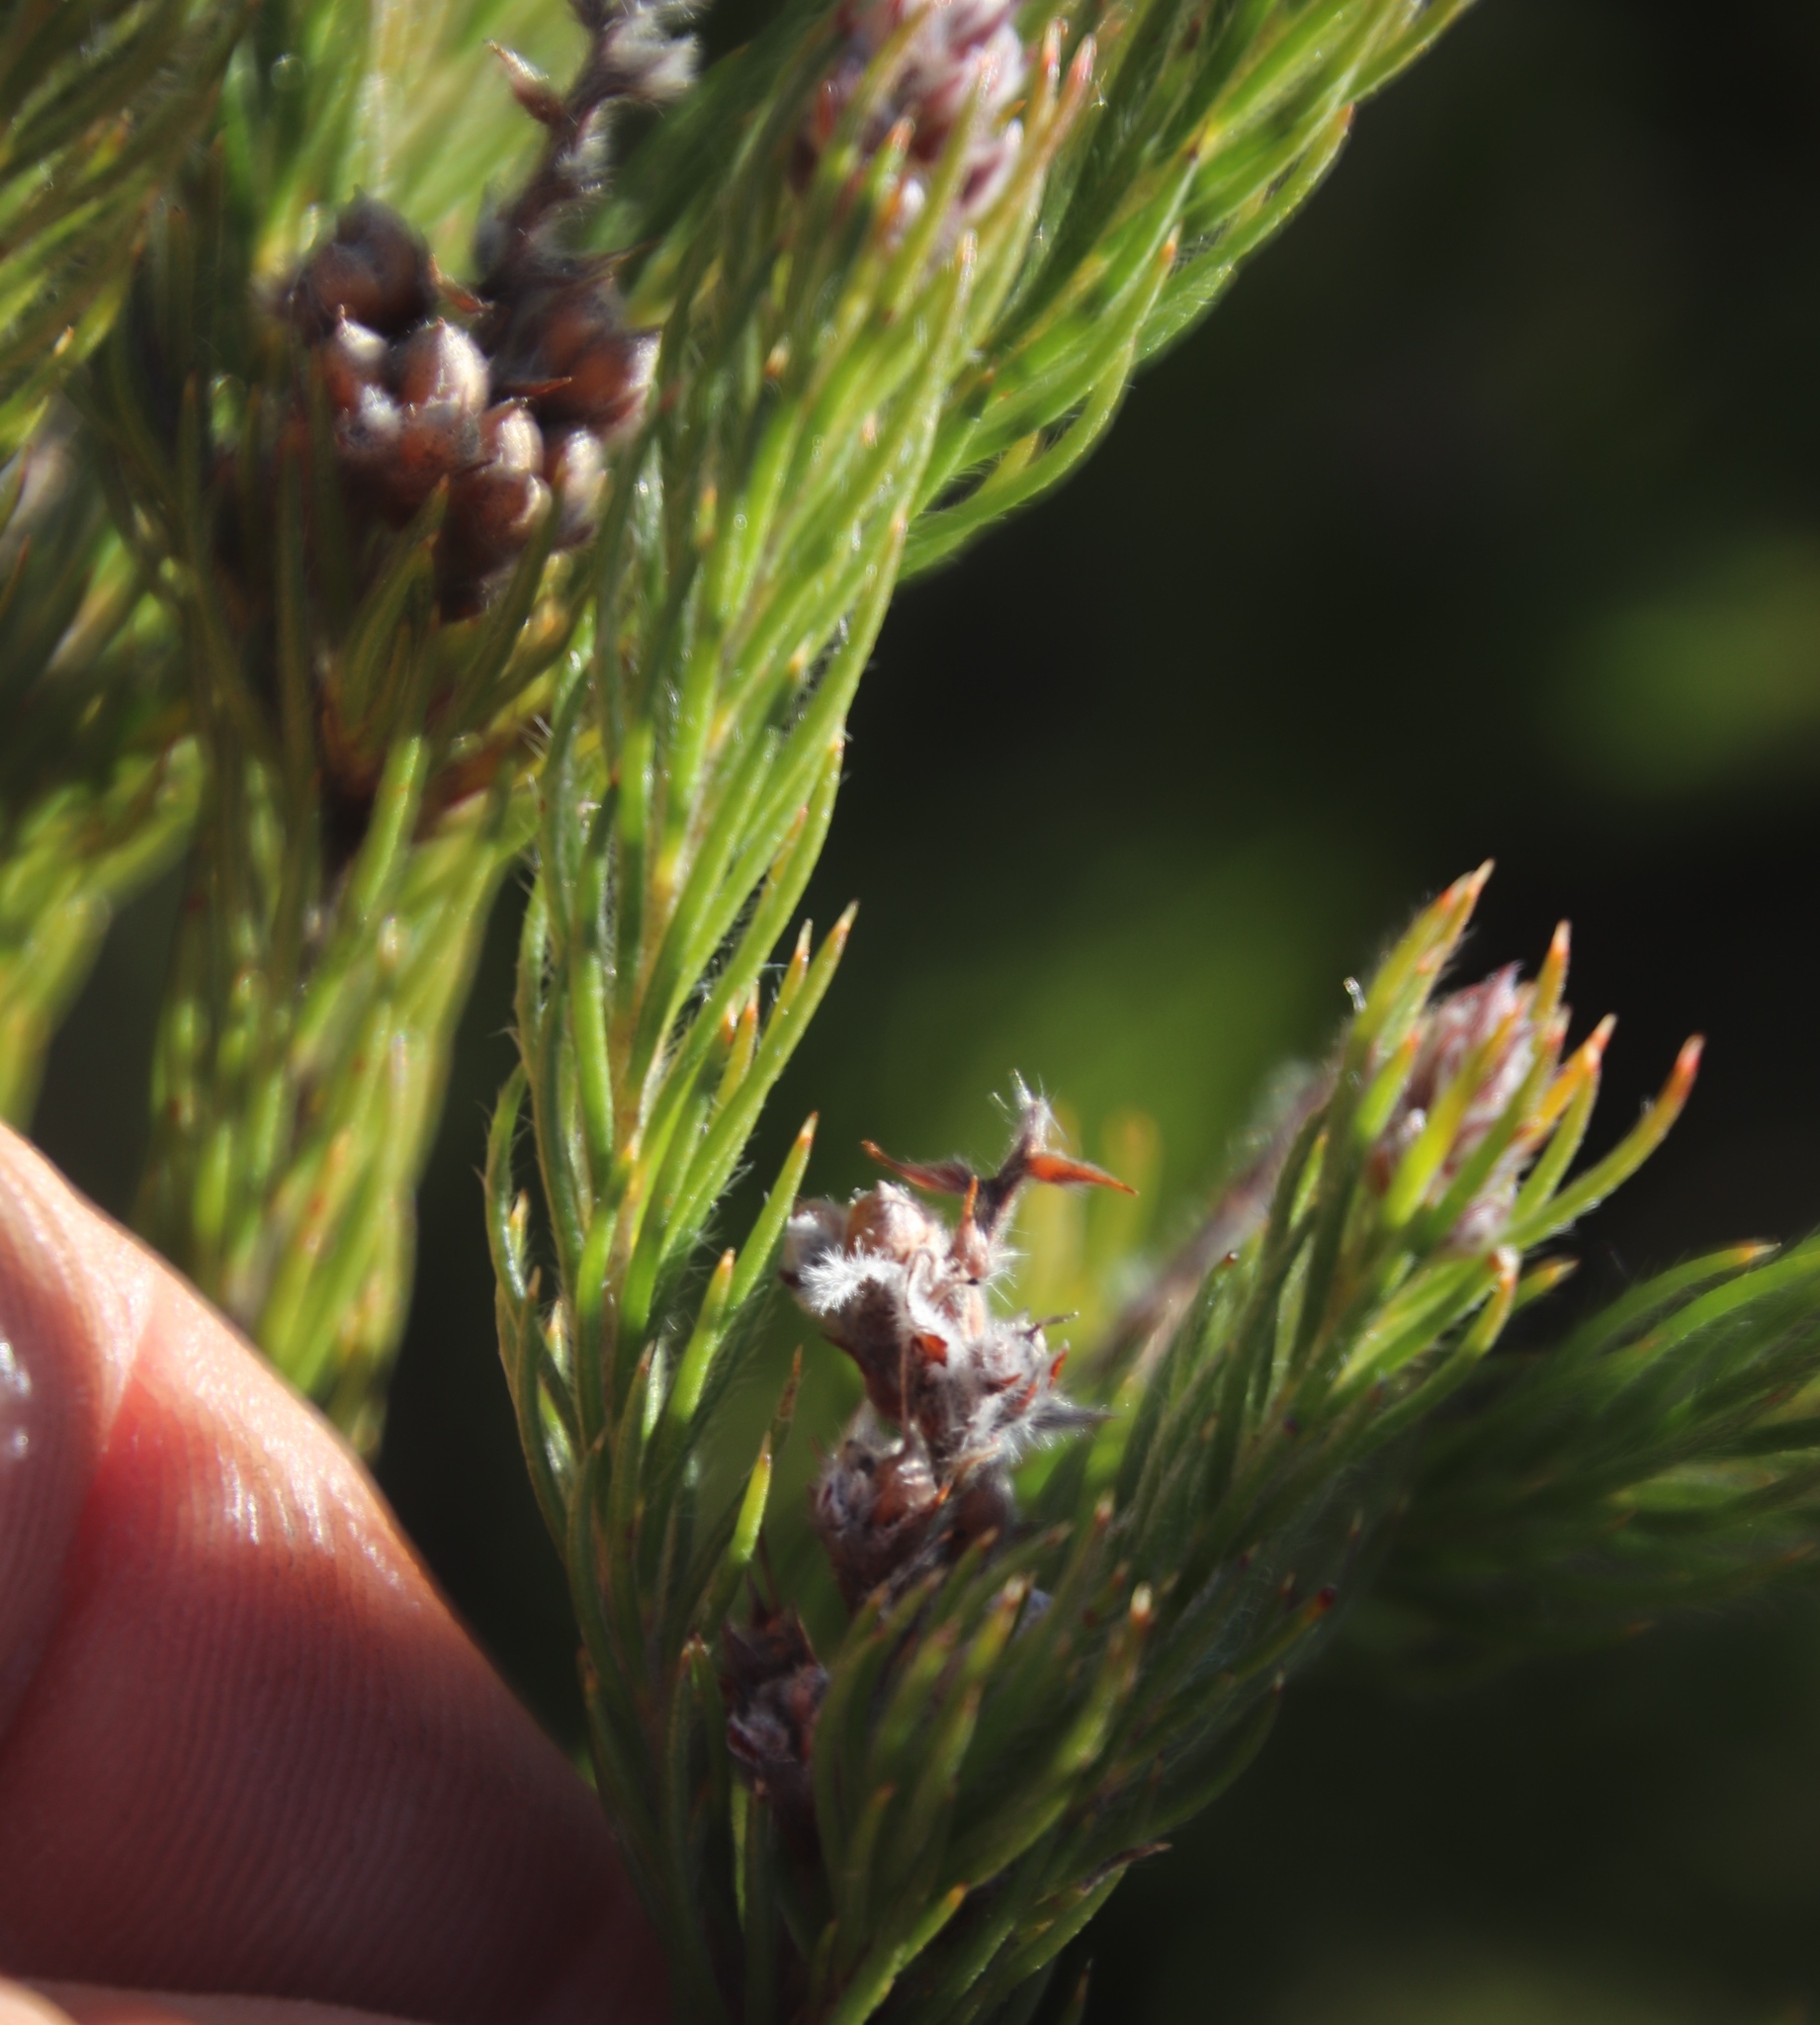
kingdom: Plantae
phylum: Tracheophyta
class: Magnoliopsida
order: Proteales
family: Proteaceae
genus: Spatalla
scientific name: Spatalla propinqua
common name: Lax spoon
